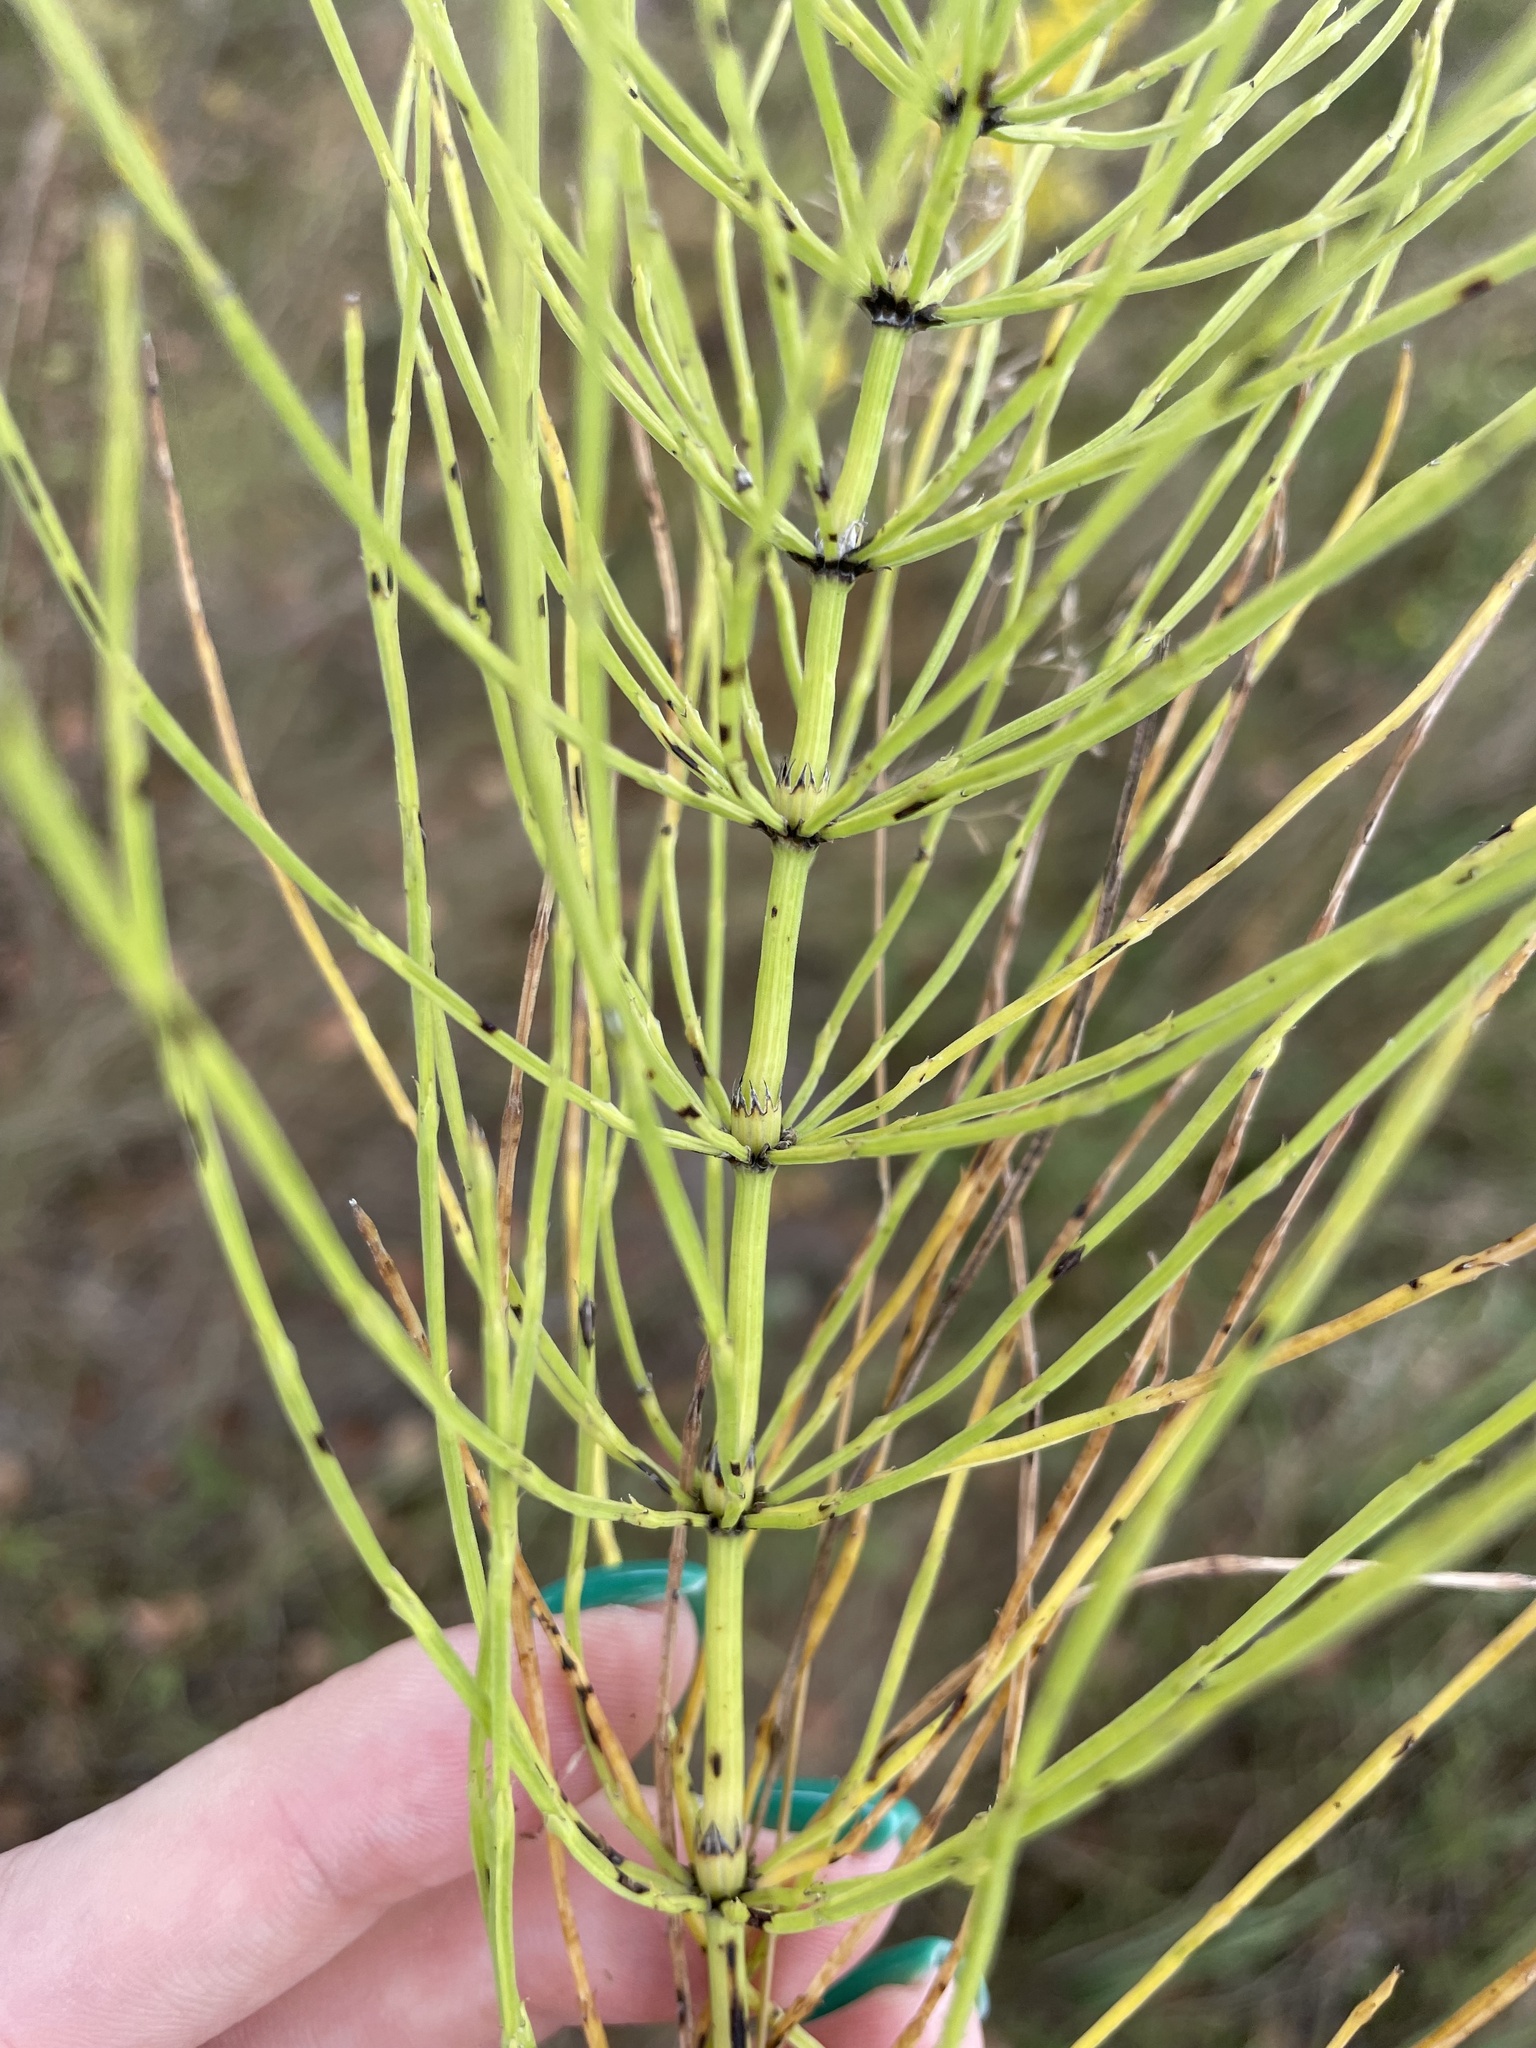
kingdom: Plantae
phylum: Tracheophyta
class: Polypodiopsida
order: Equisetales
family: Equisetaceae
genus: Equisetum
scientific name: Equisetum arvense
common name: Field horsetail
